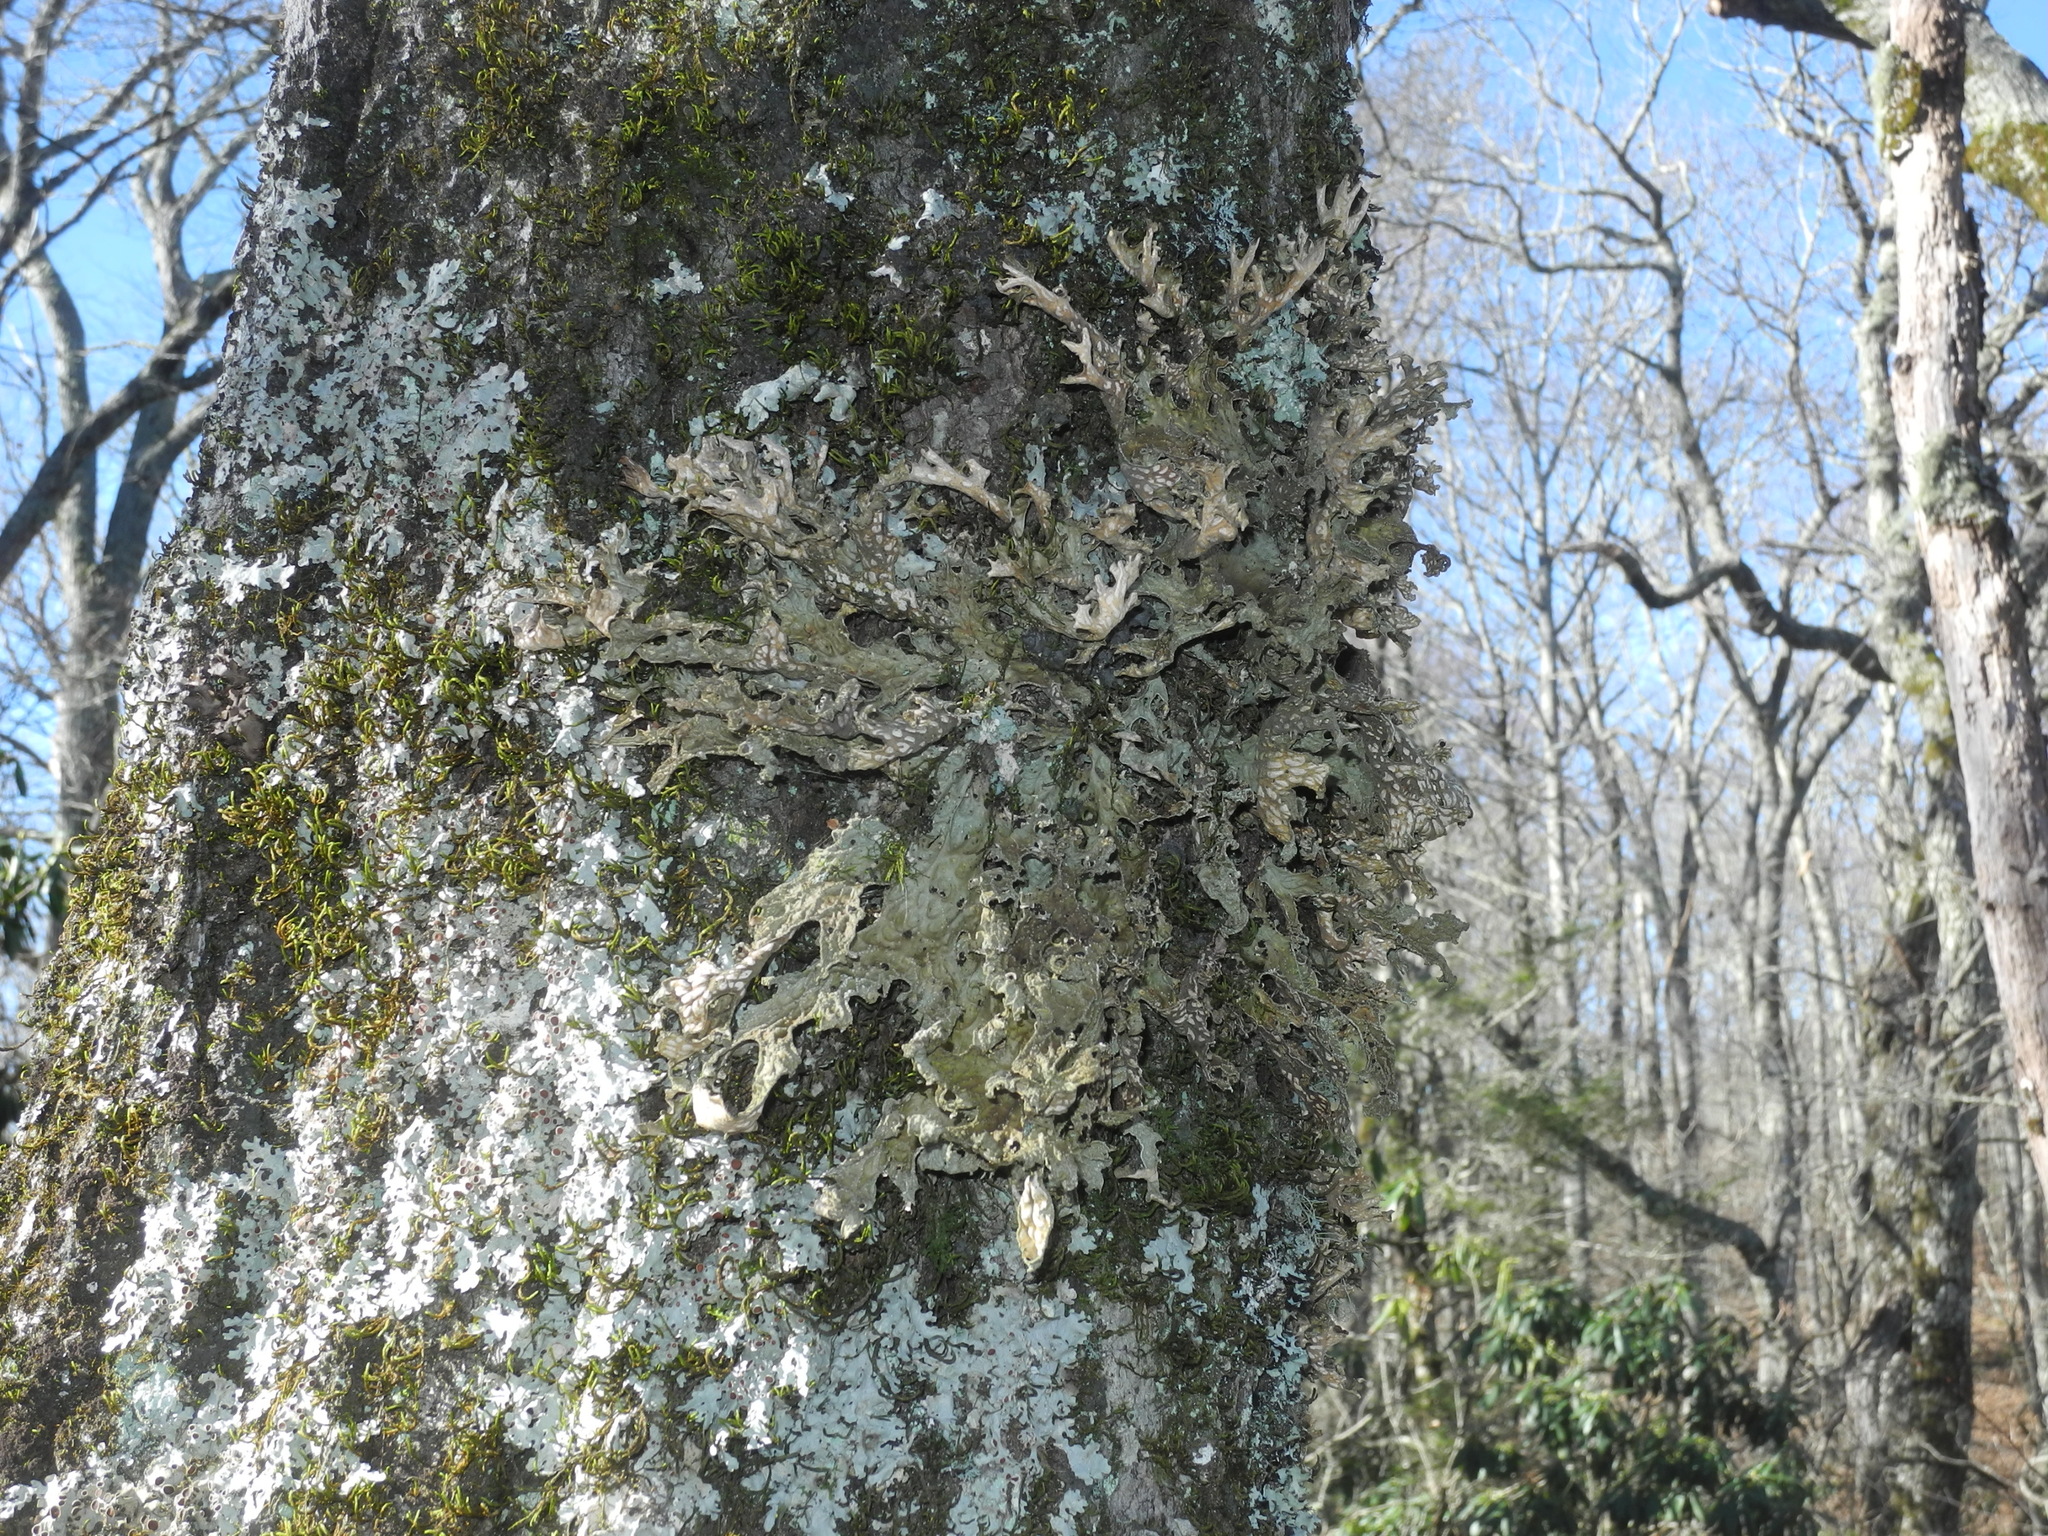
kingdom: Fungi
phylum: Ascomycota
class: Lecanoromycetes
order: Peltigerales
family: Lobariaceae
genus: Lobaria
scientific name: Lobaria pulmonaria
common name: Lungwort
